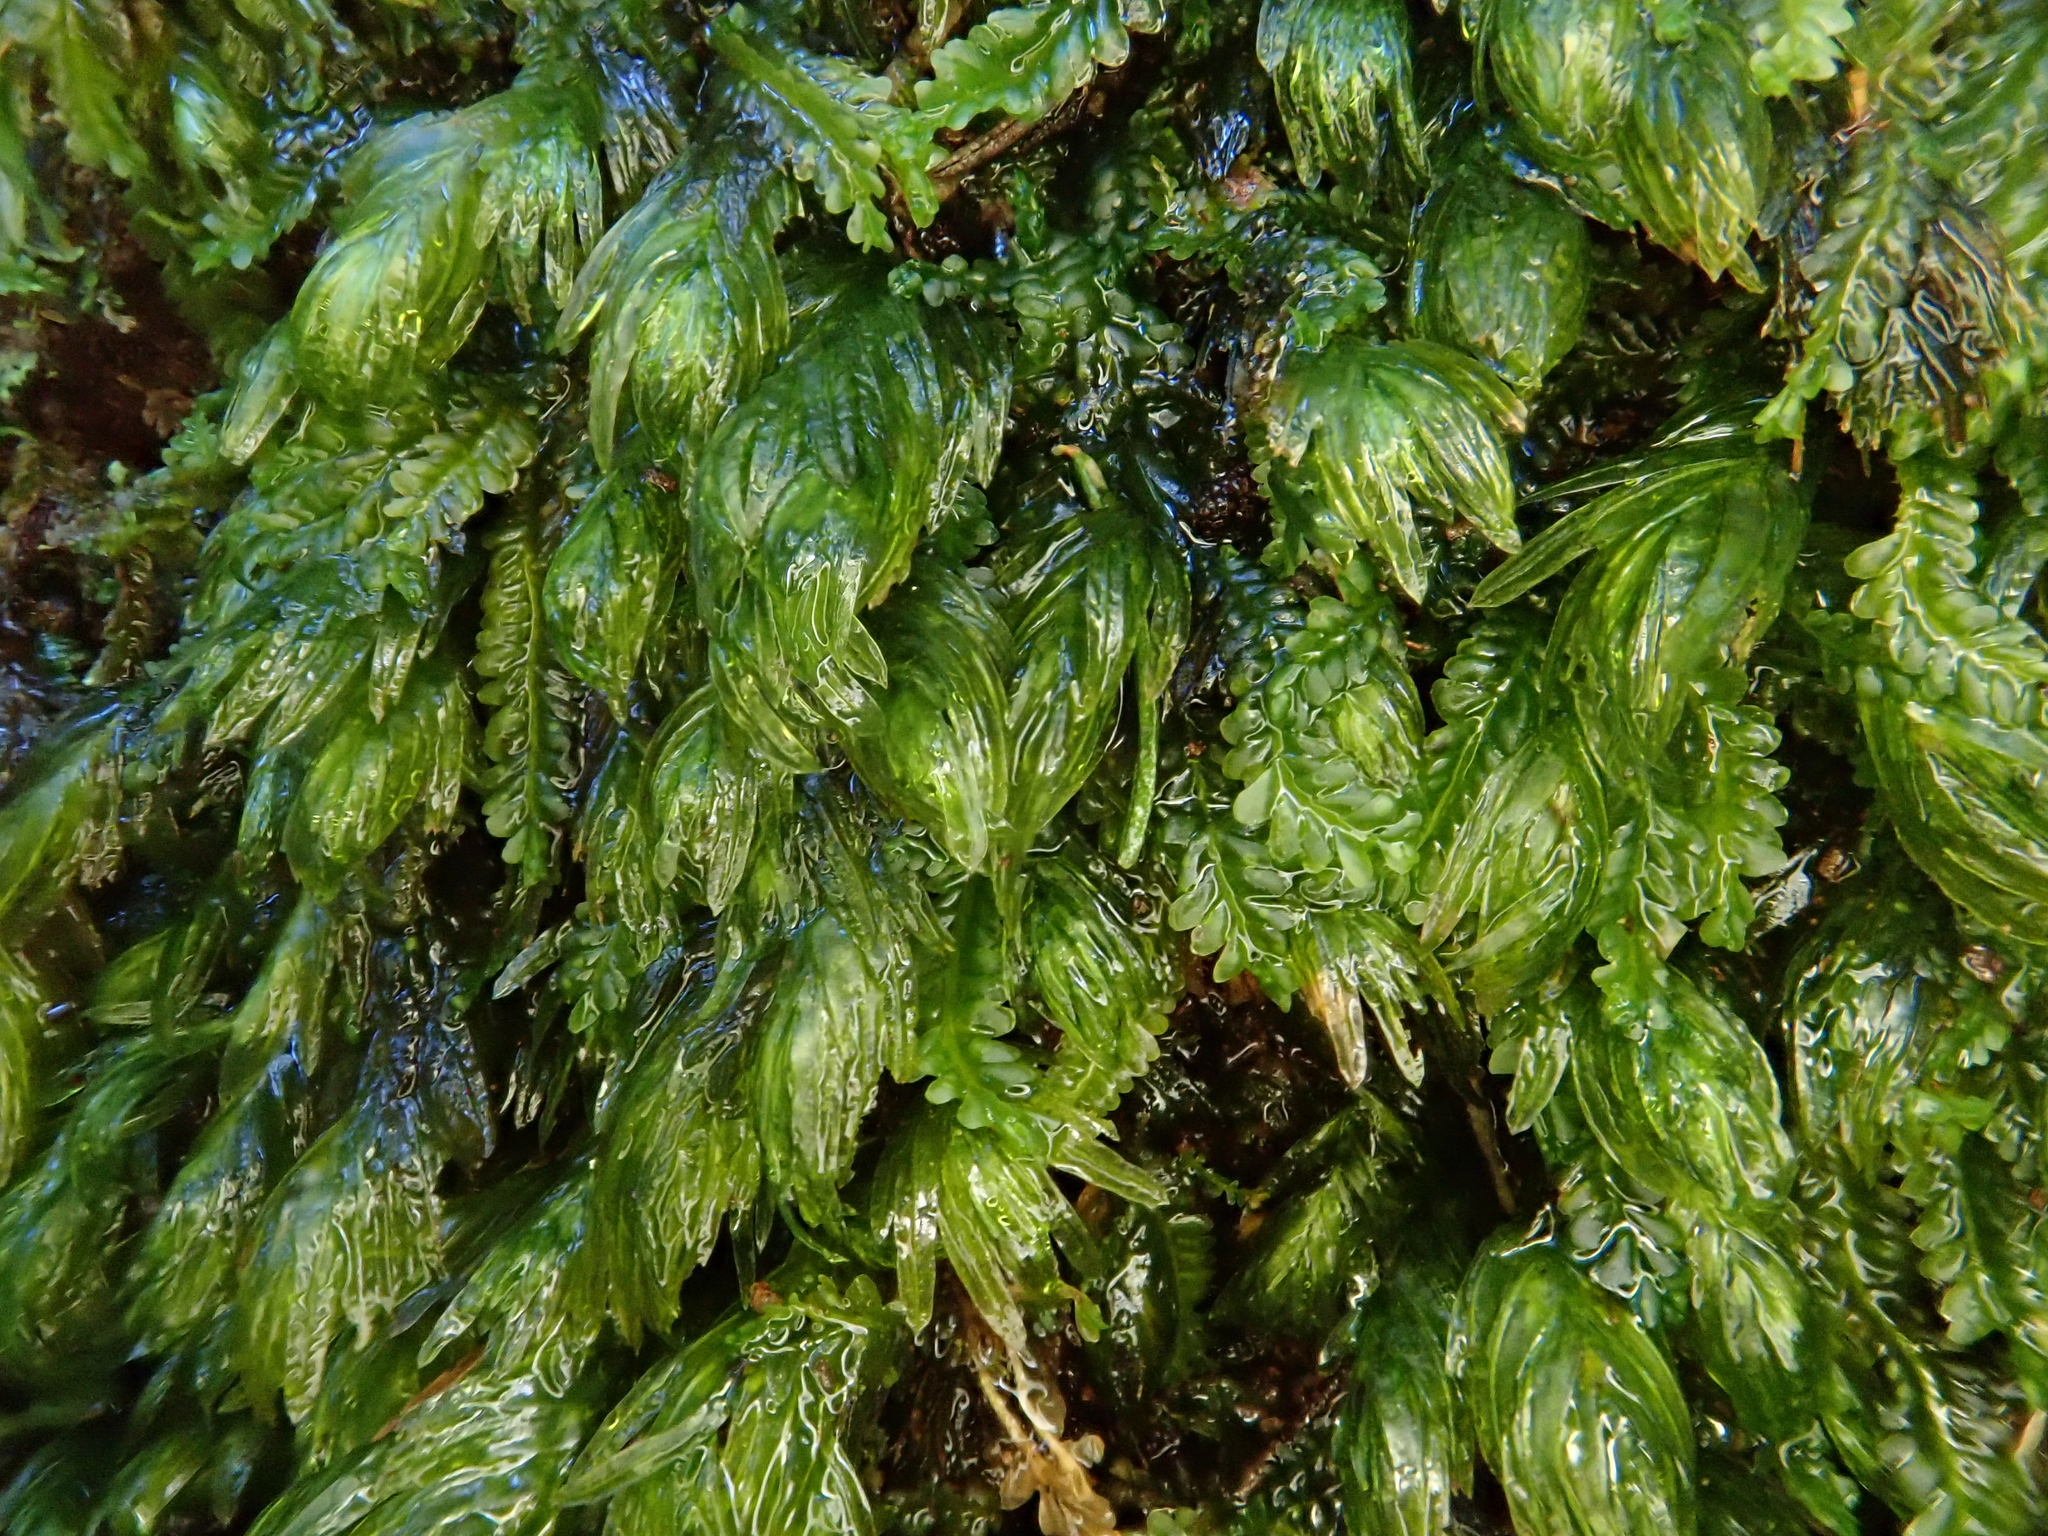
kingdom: Plantae
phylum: Bryophyta
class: Bryopsida
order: Dicranales
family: Fissidentaceae
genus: Fissidens
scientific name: Fissidens serrulatus
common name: Large atlantic pocket-moss
